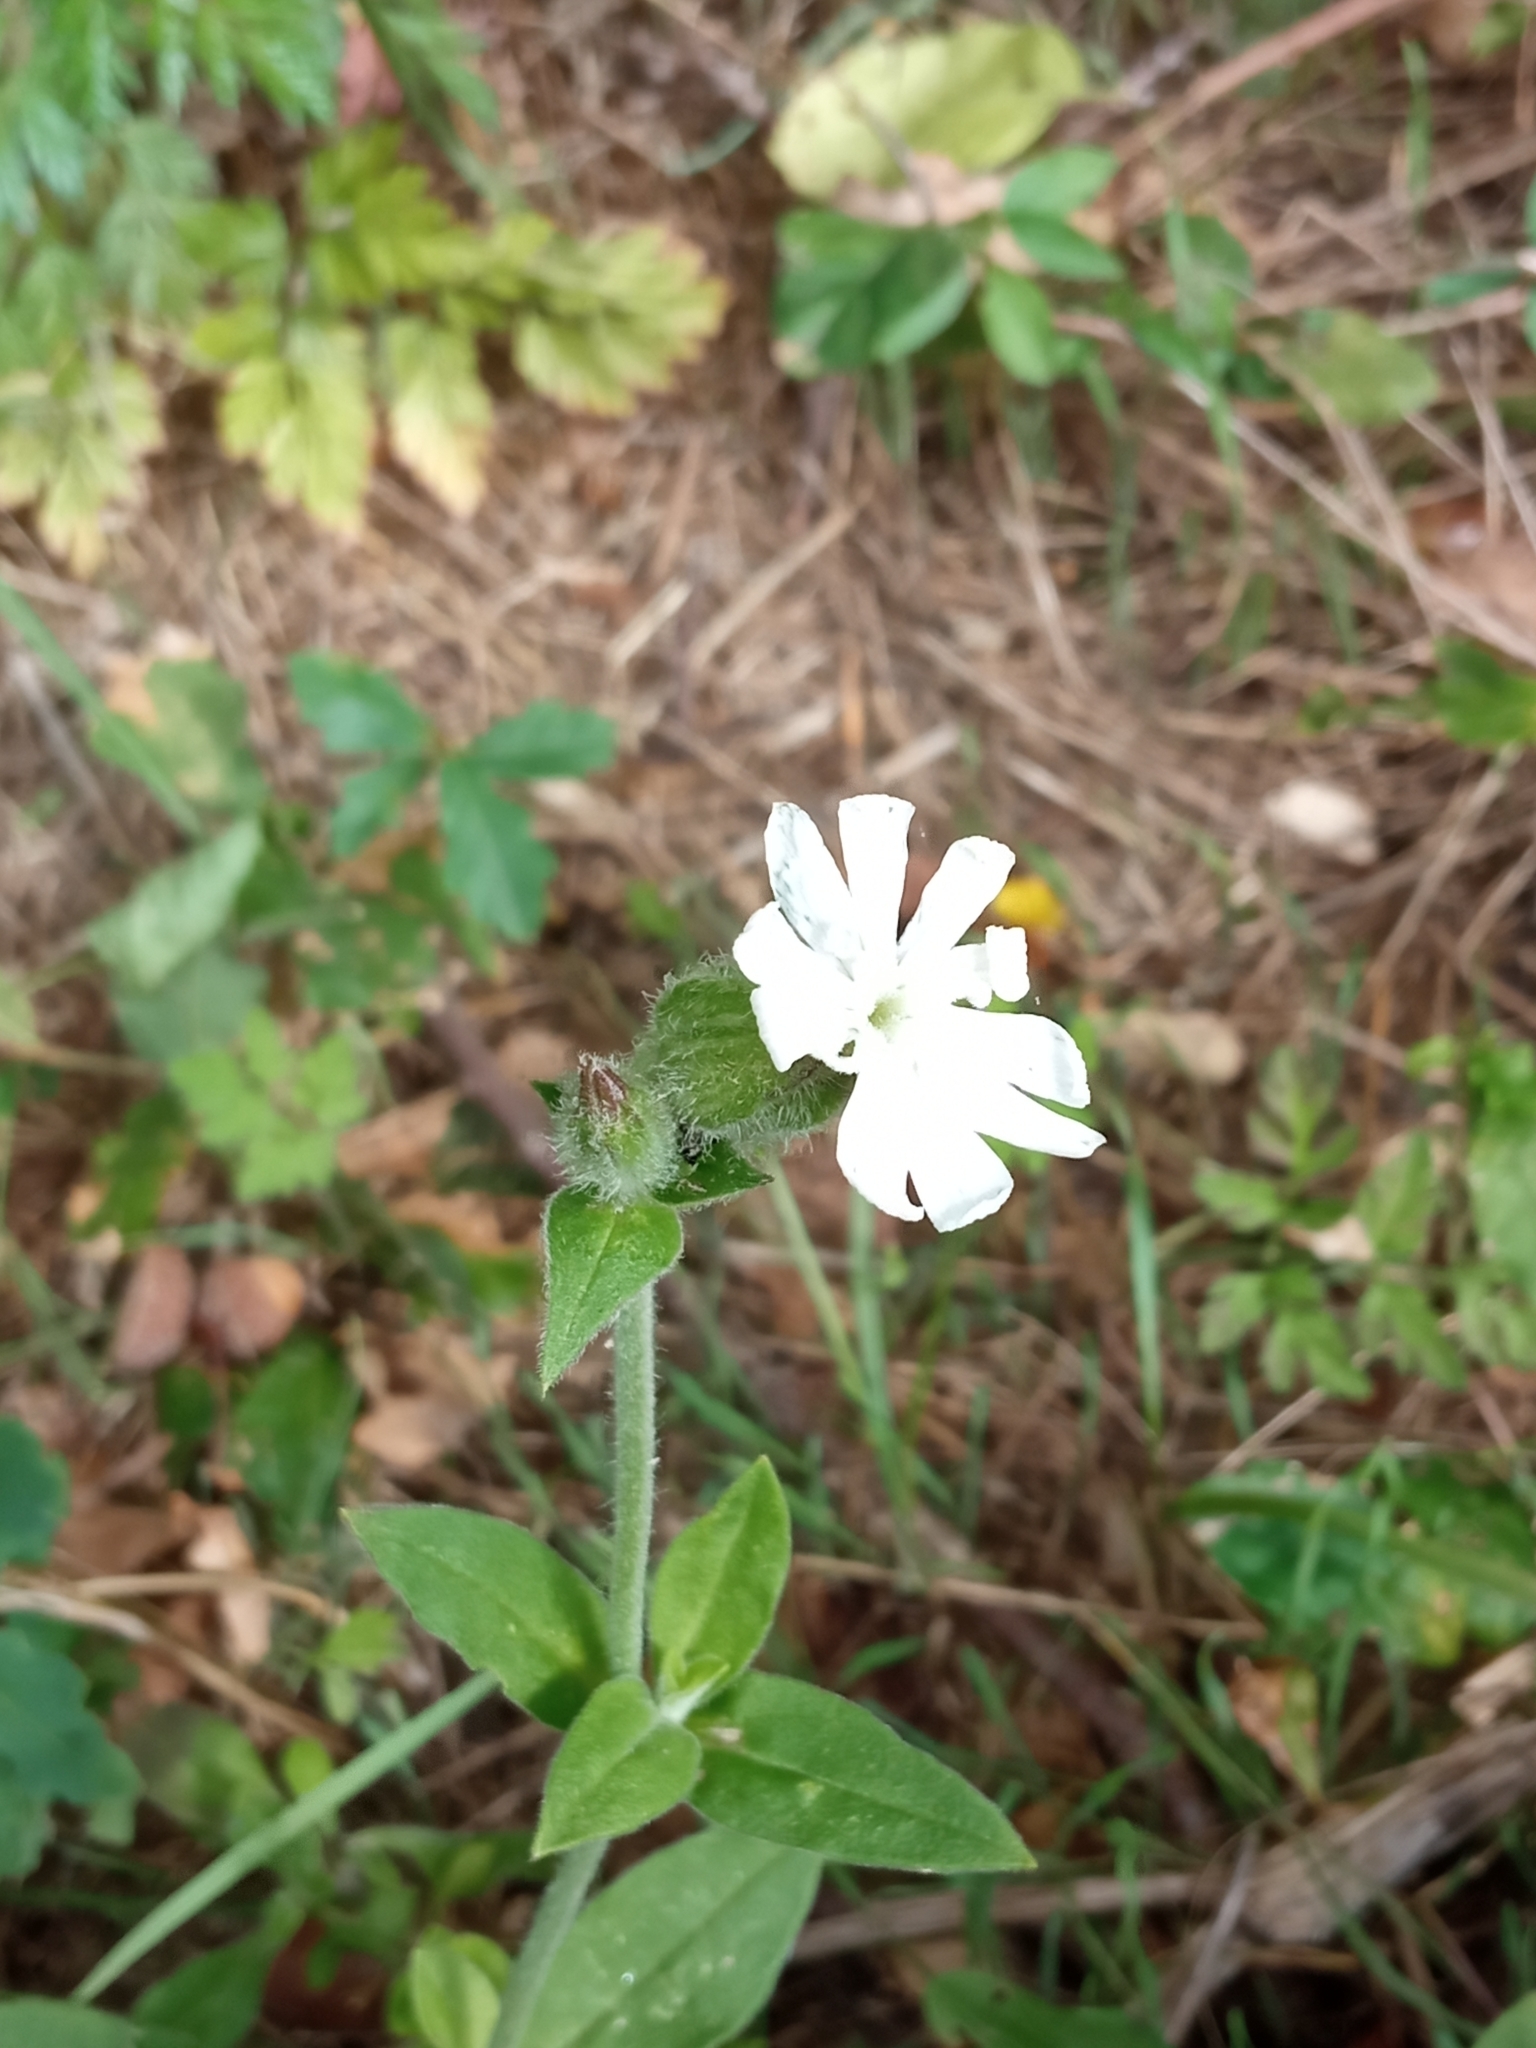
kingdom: Plantae
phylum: Tracheophyta
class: Magnoliopsida
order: Caryophyllales
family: Caryophyllaceae
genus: Silene
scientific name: Silene latifolia
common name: White campion
